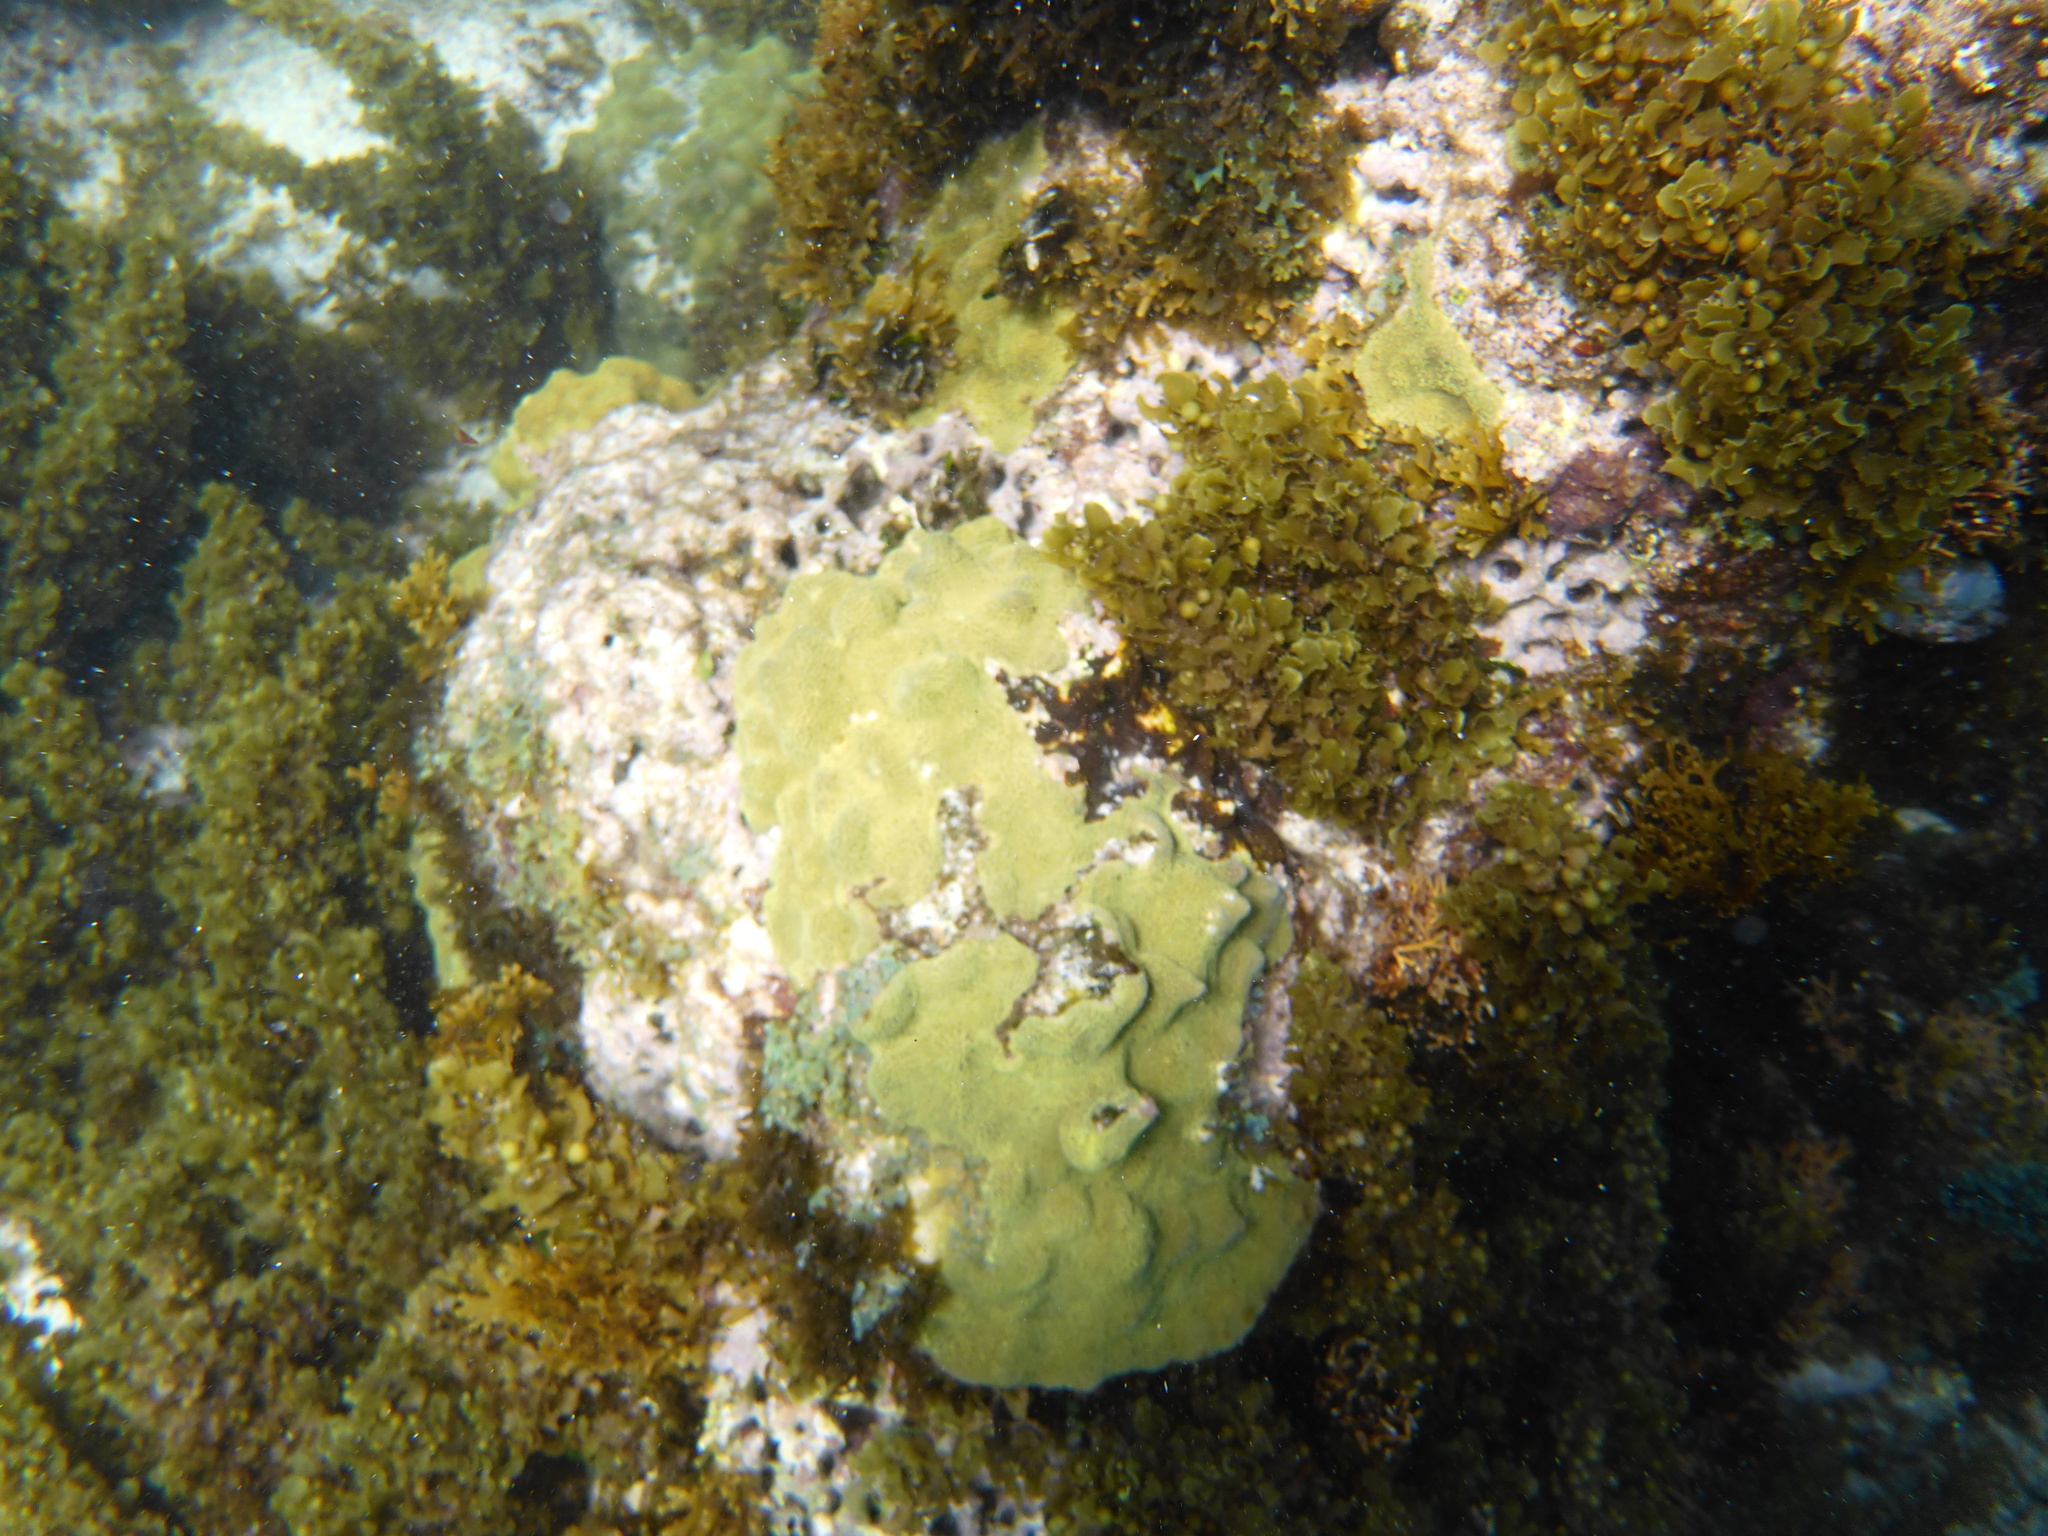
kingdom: Animalia
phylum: Cnidaria
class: Anthozoa
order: Scleractinia
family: Poritidae
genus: Porites
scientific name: Porites astreoides
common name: Mustard hill coral
